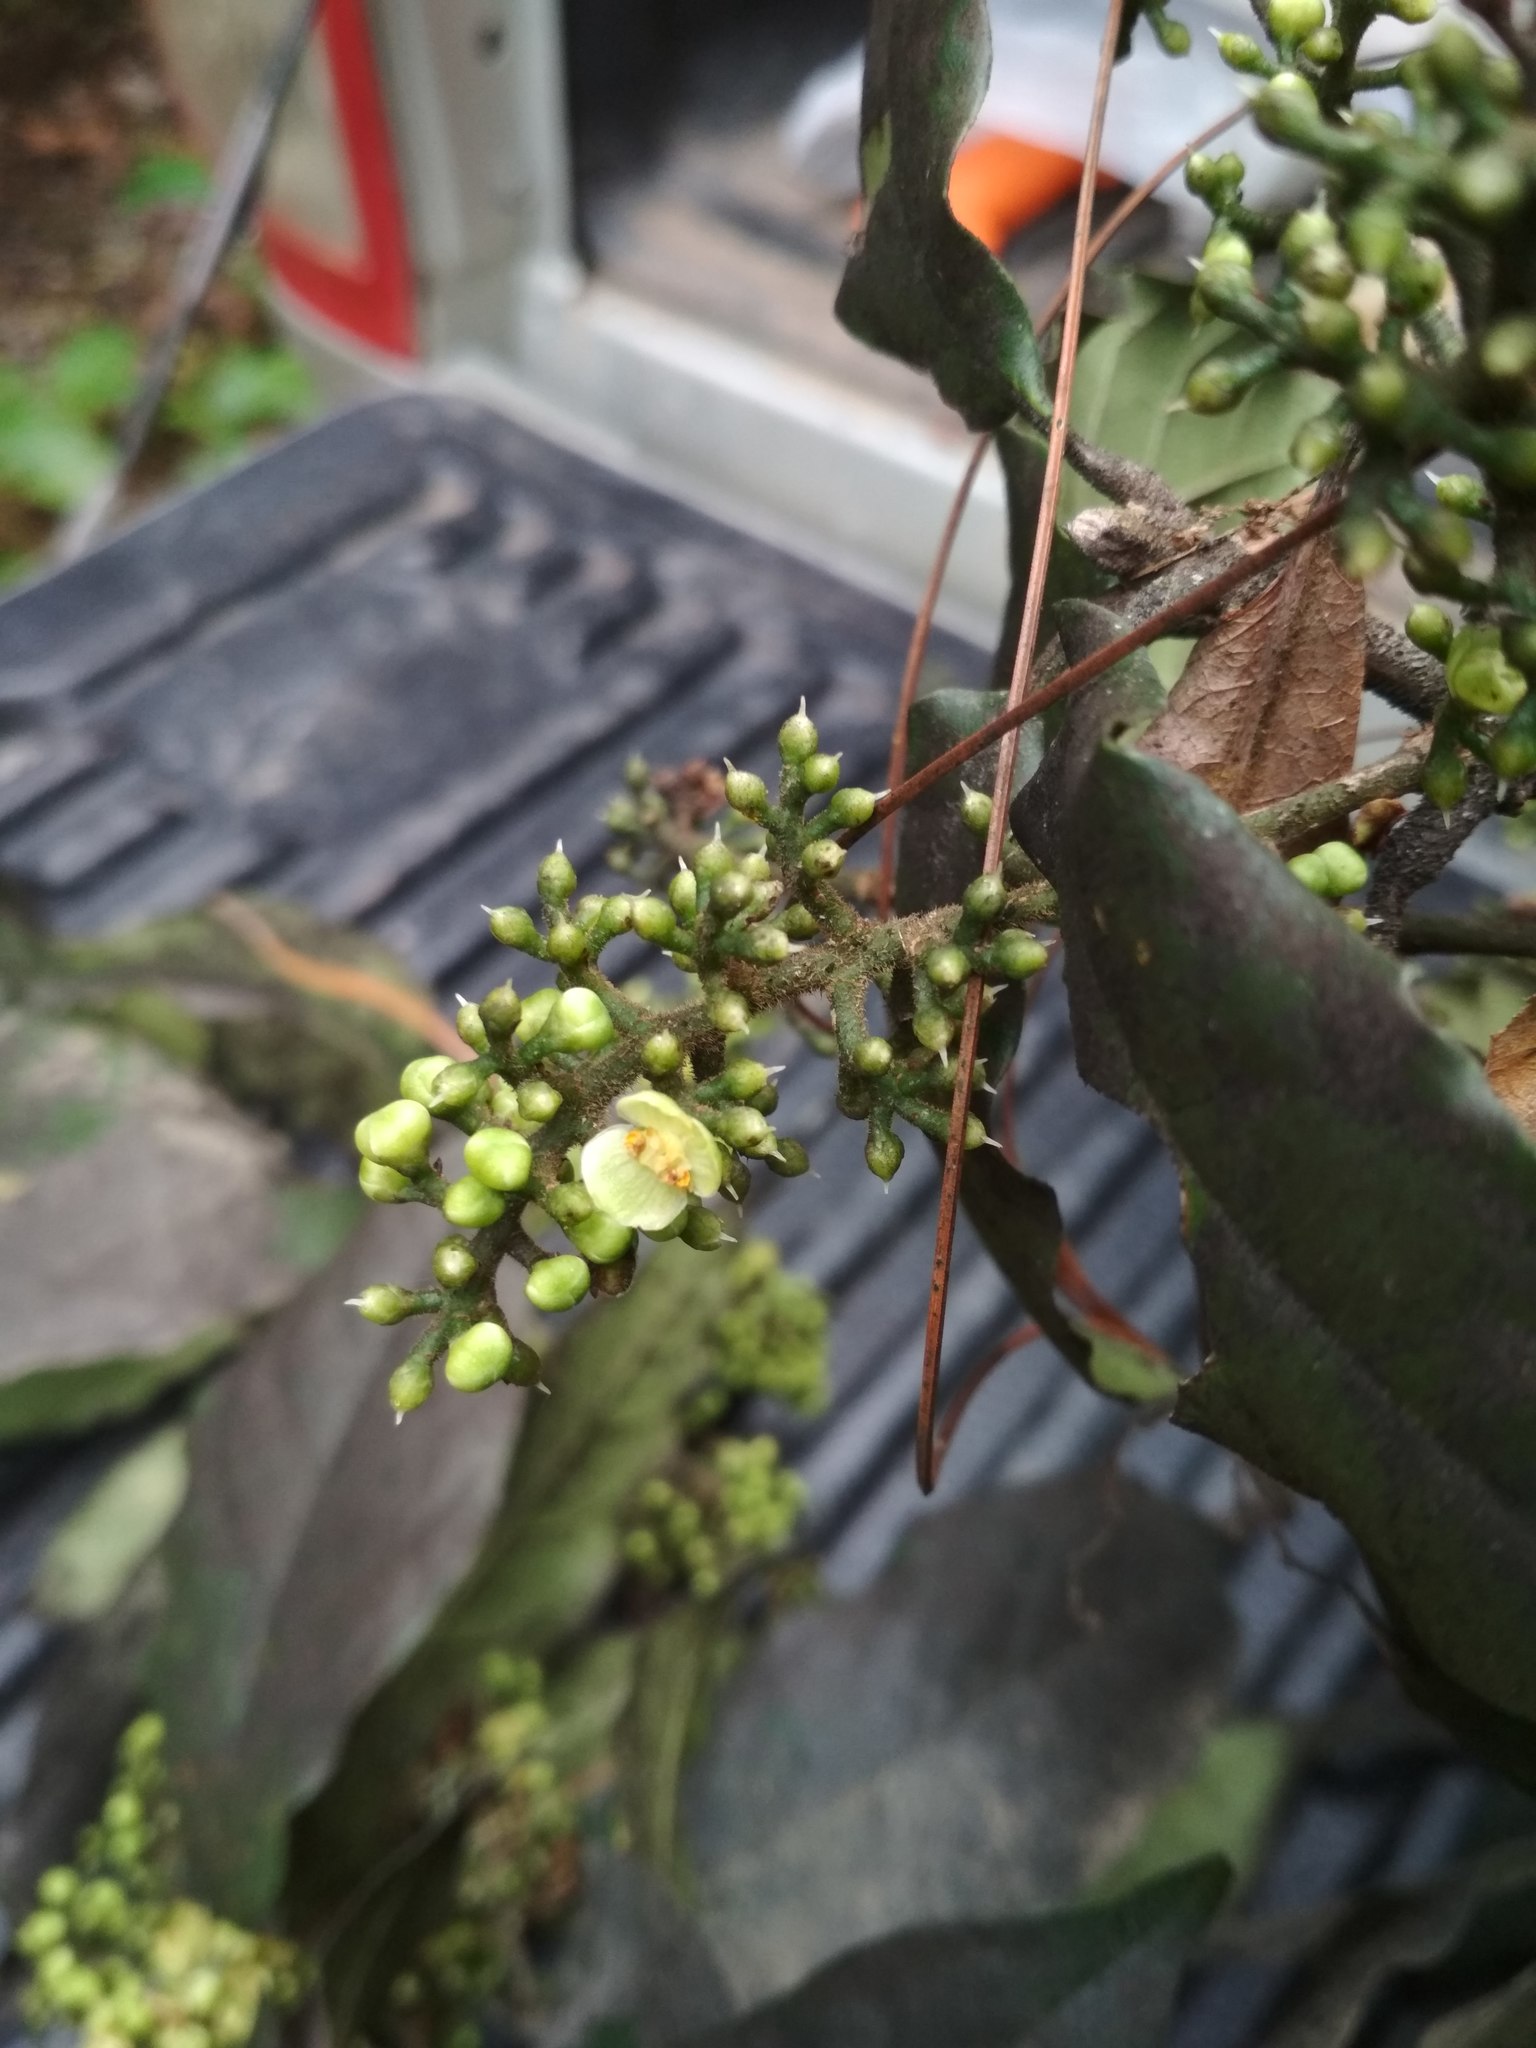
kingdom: Plantae
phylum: Tracheophyta
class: Magnoliopsida
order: Proteales
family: Sabiaceae
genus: Meliosma
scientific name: Meliosma dentata
